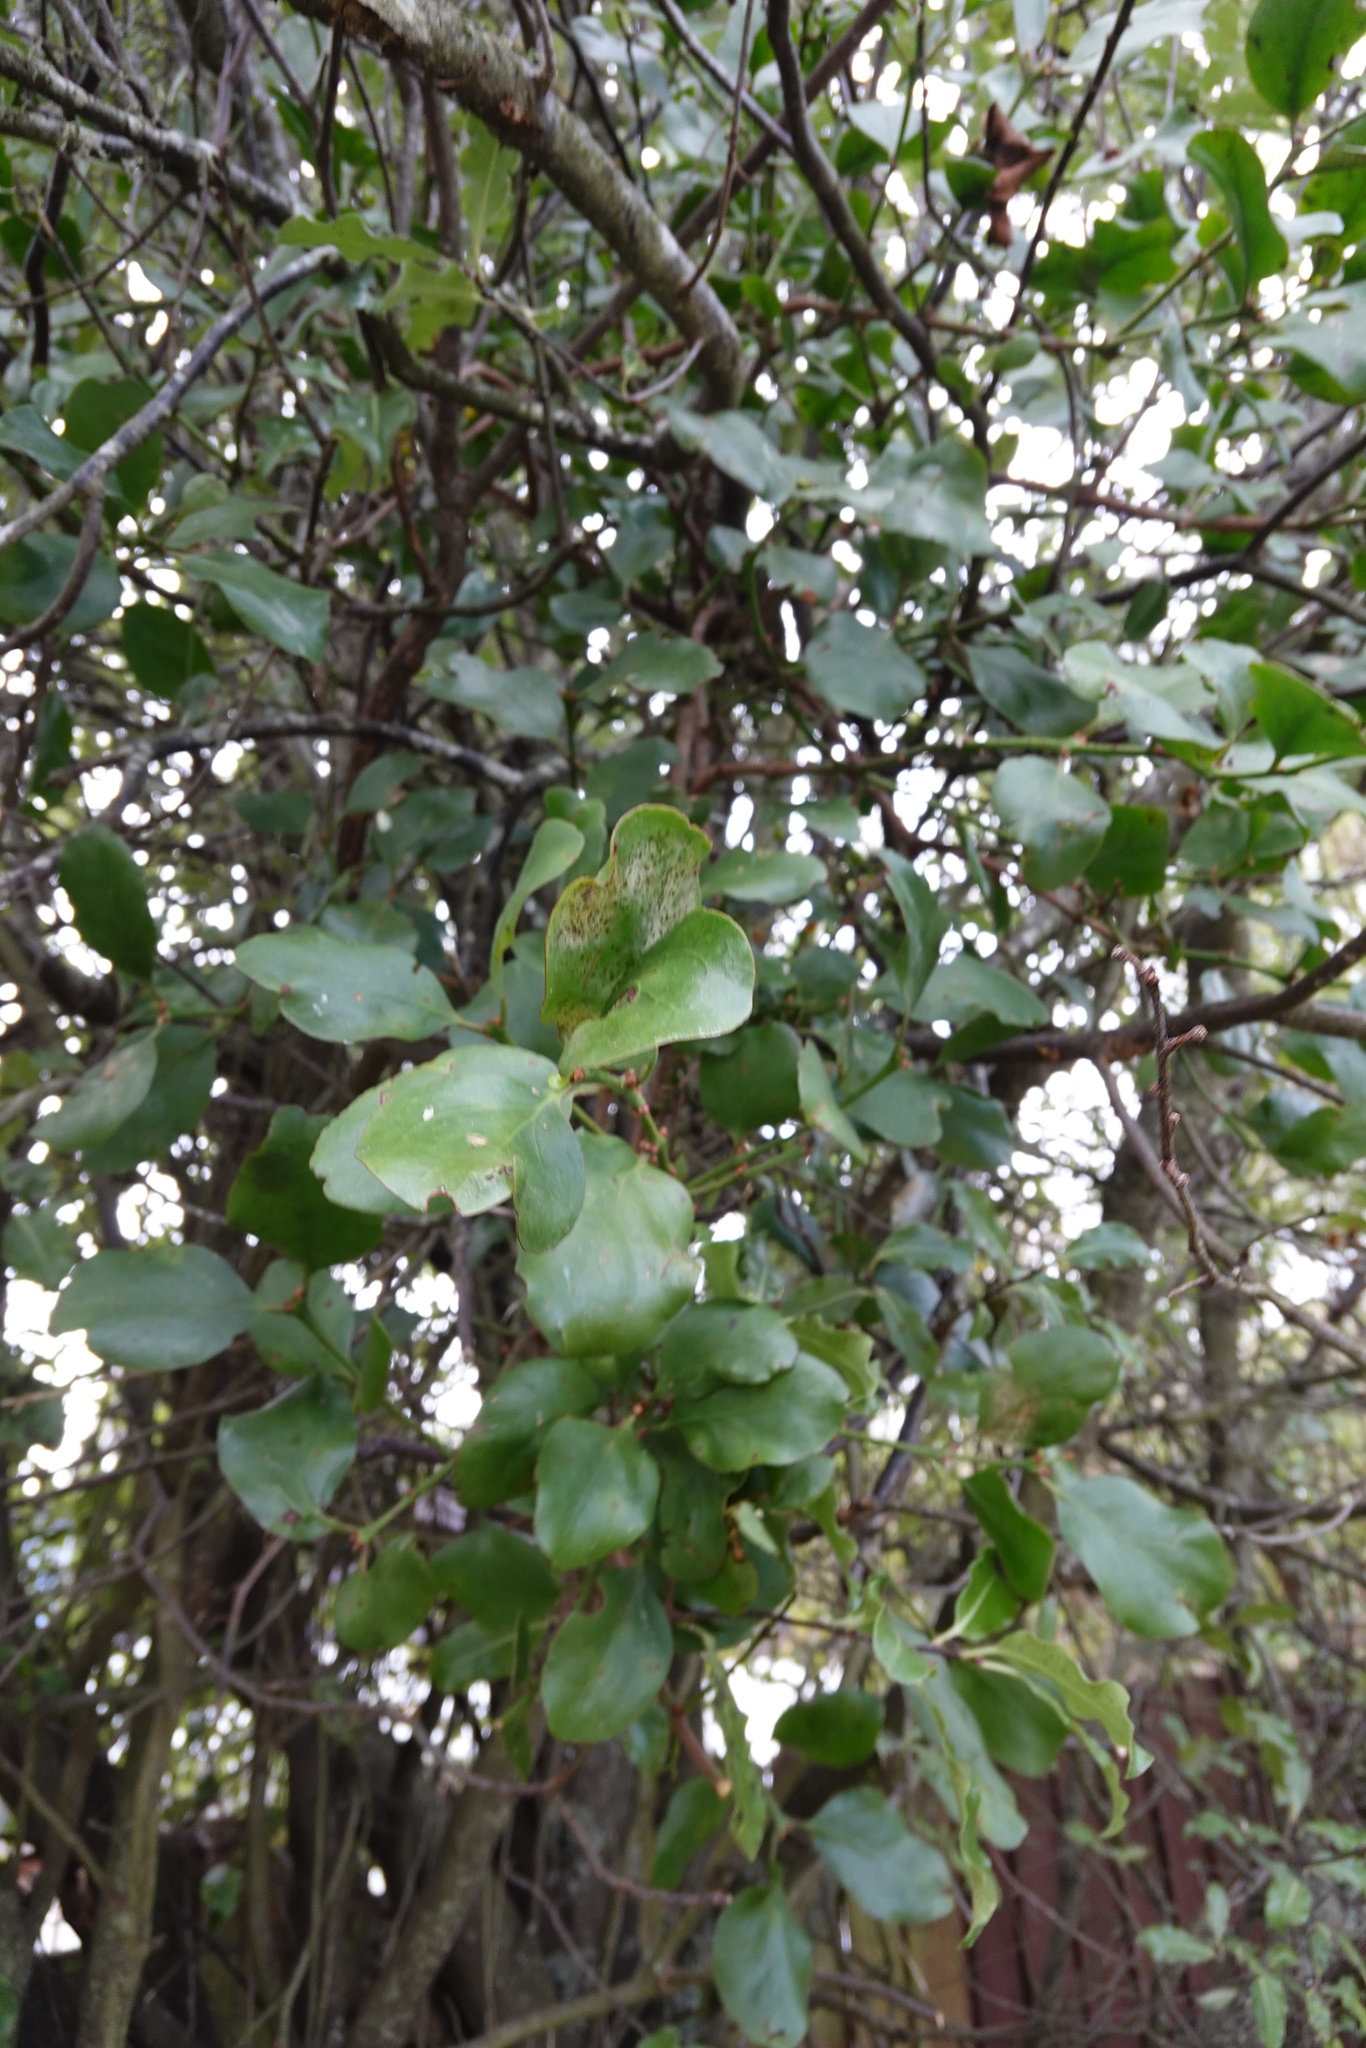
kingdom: Plantae
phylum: Tracheophyta
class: Magnoliopsida
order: Santalales
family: Loranthaceae
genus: Ileostylus
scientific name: Ileostylus micranthus
